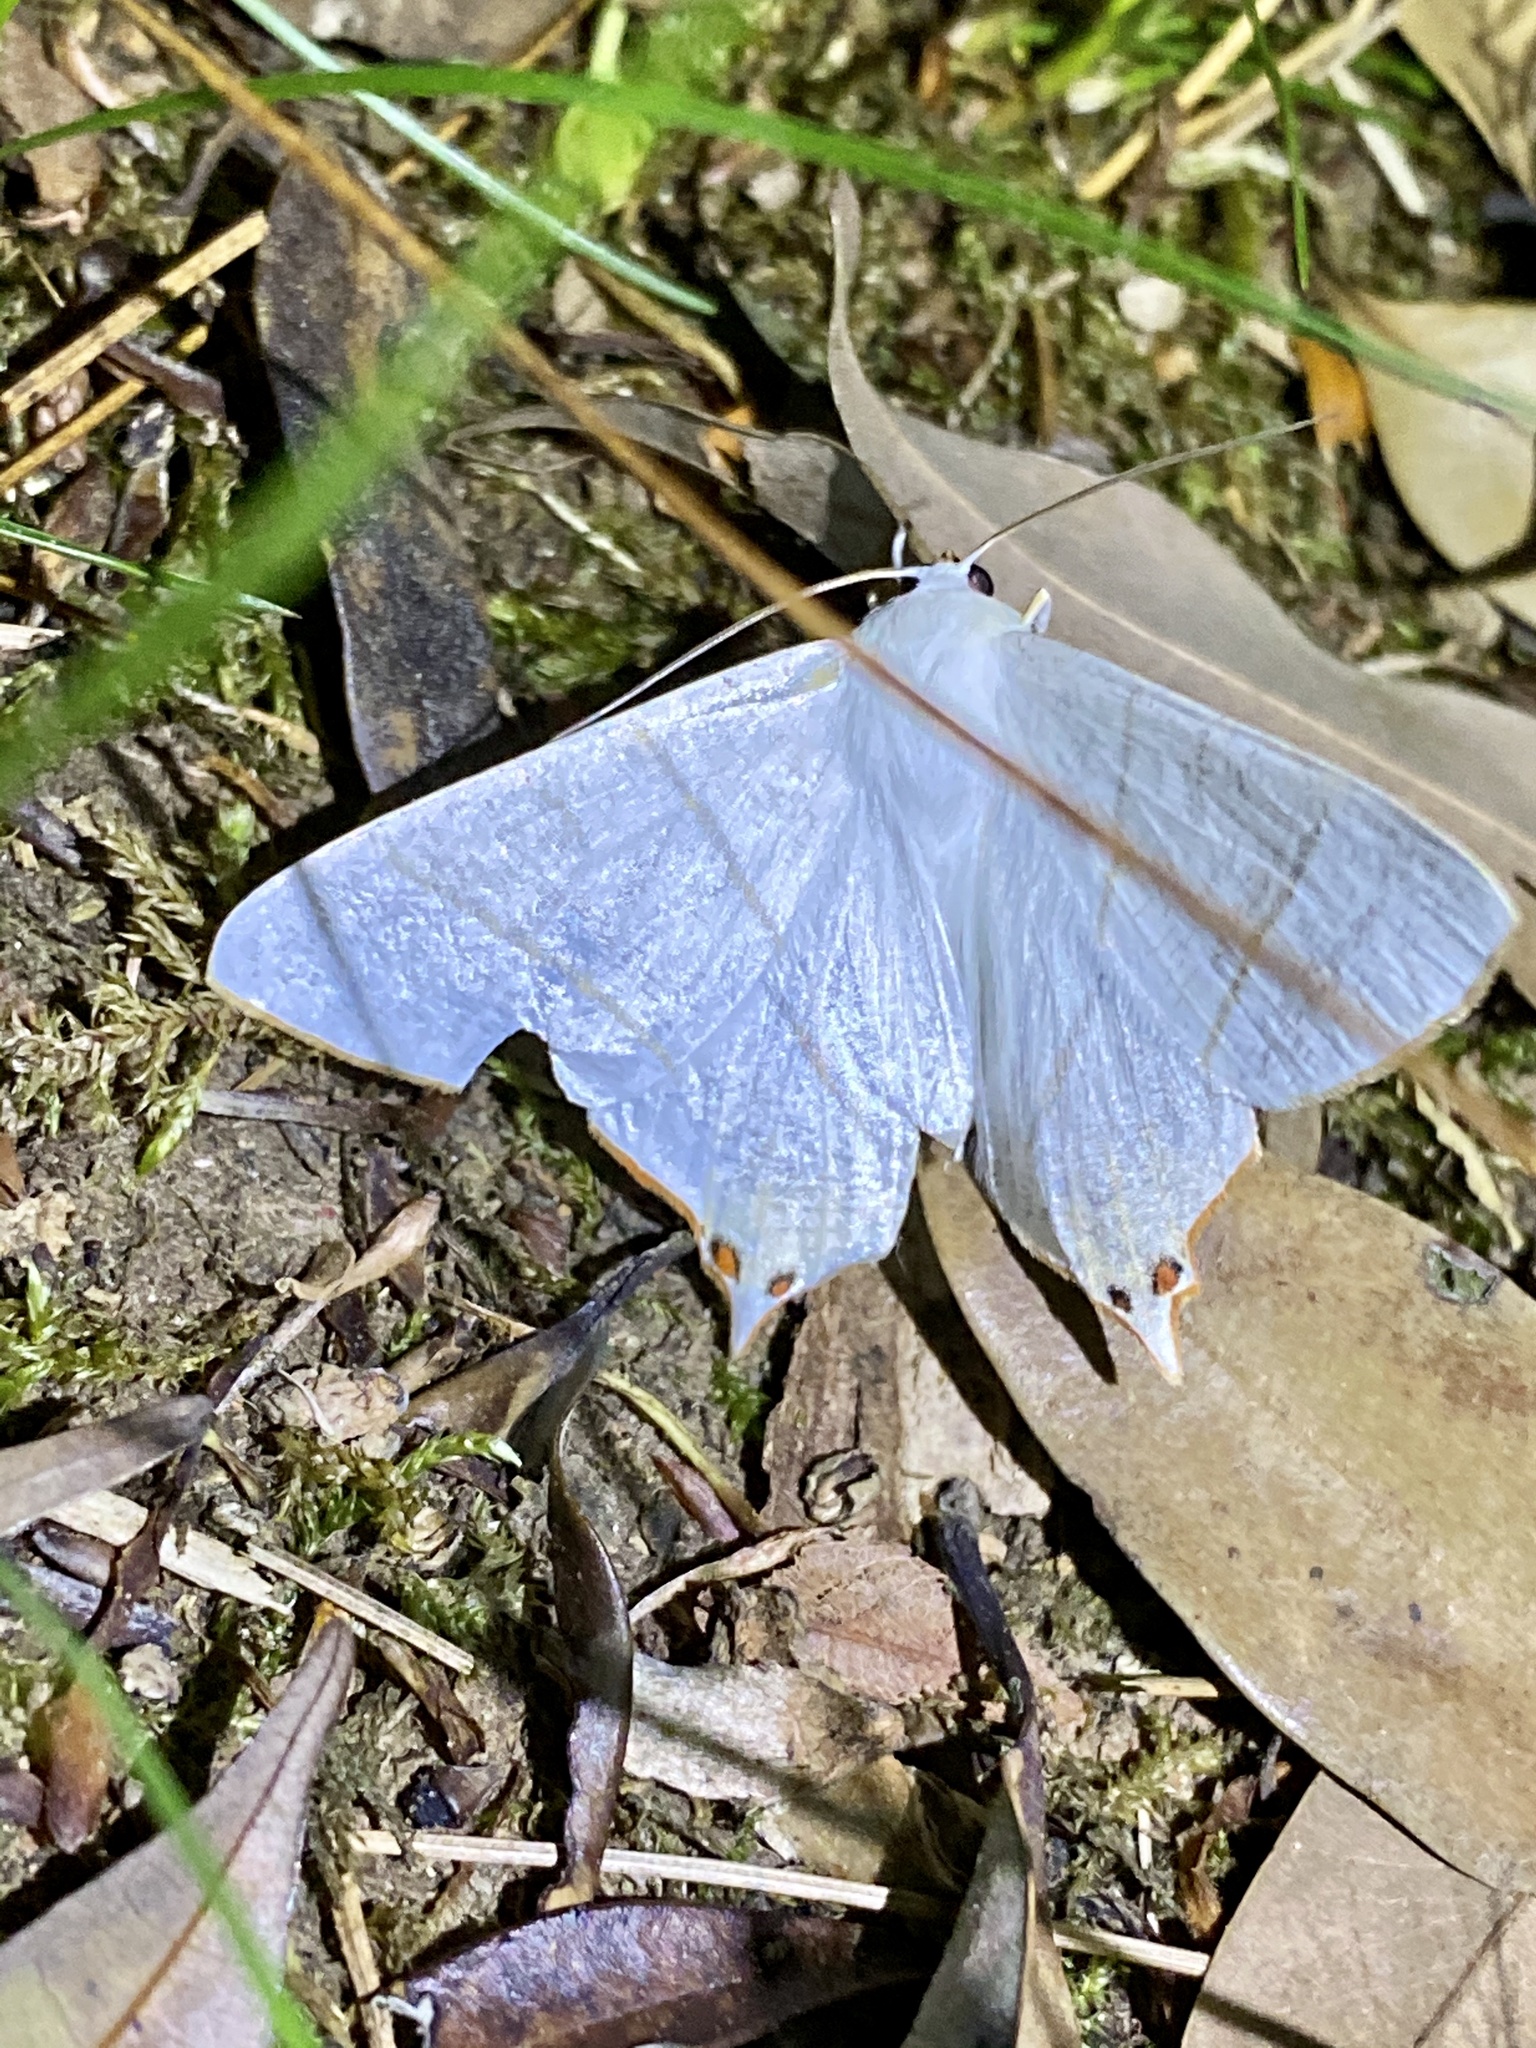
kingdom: Animalia
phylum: Arthropoda
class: Insecta
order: Lepidoptera
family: Geometridae
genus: Ourapteryx
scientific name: Ourapteryx nivea
